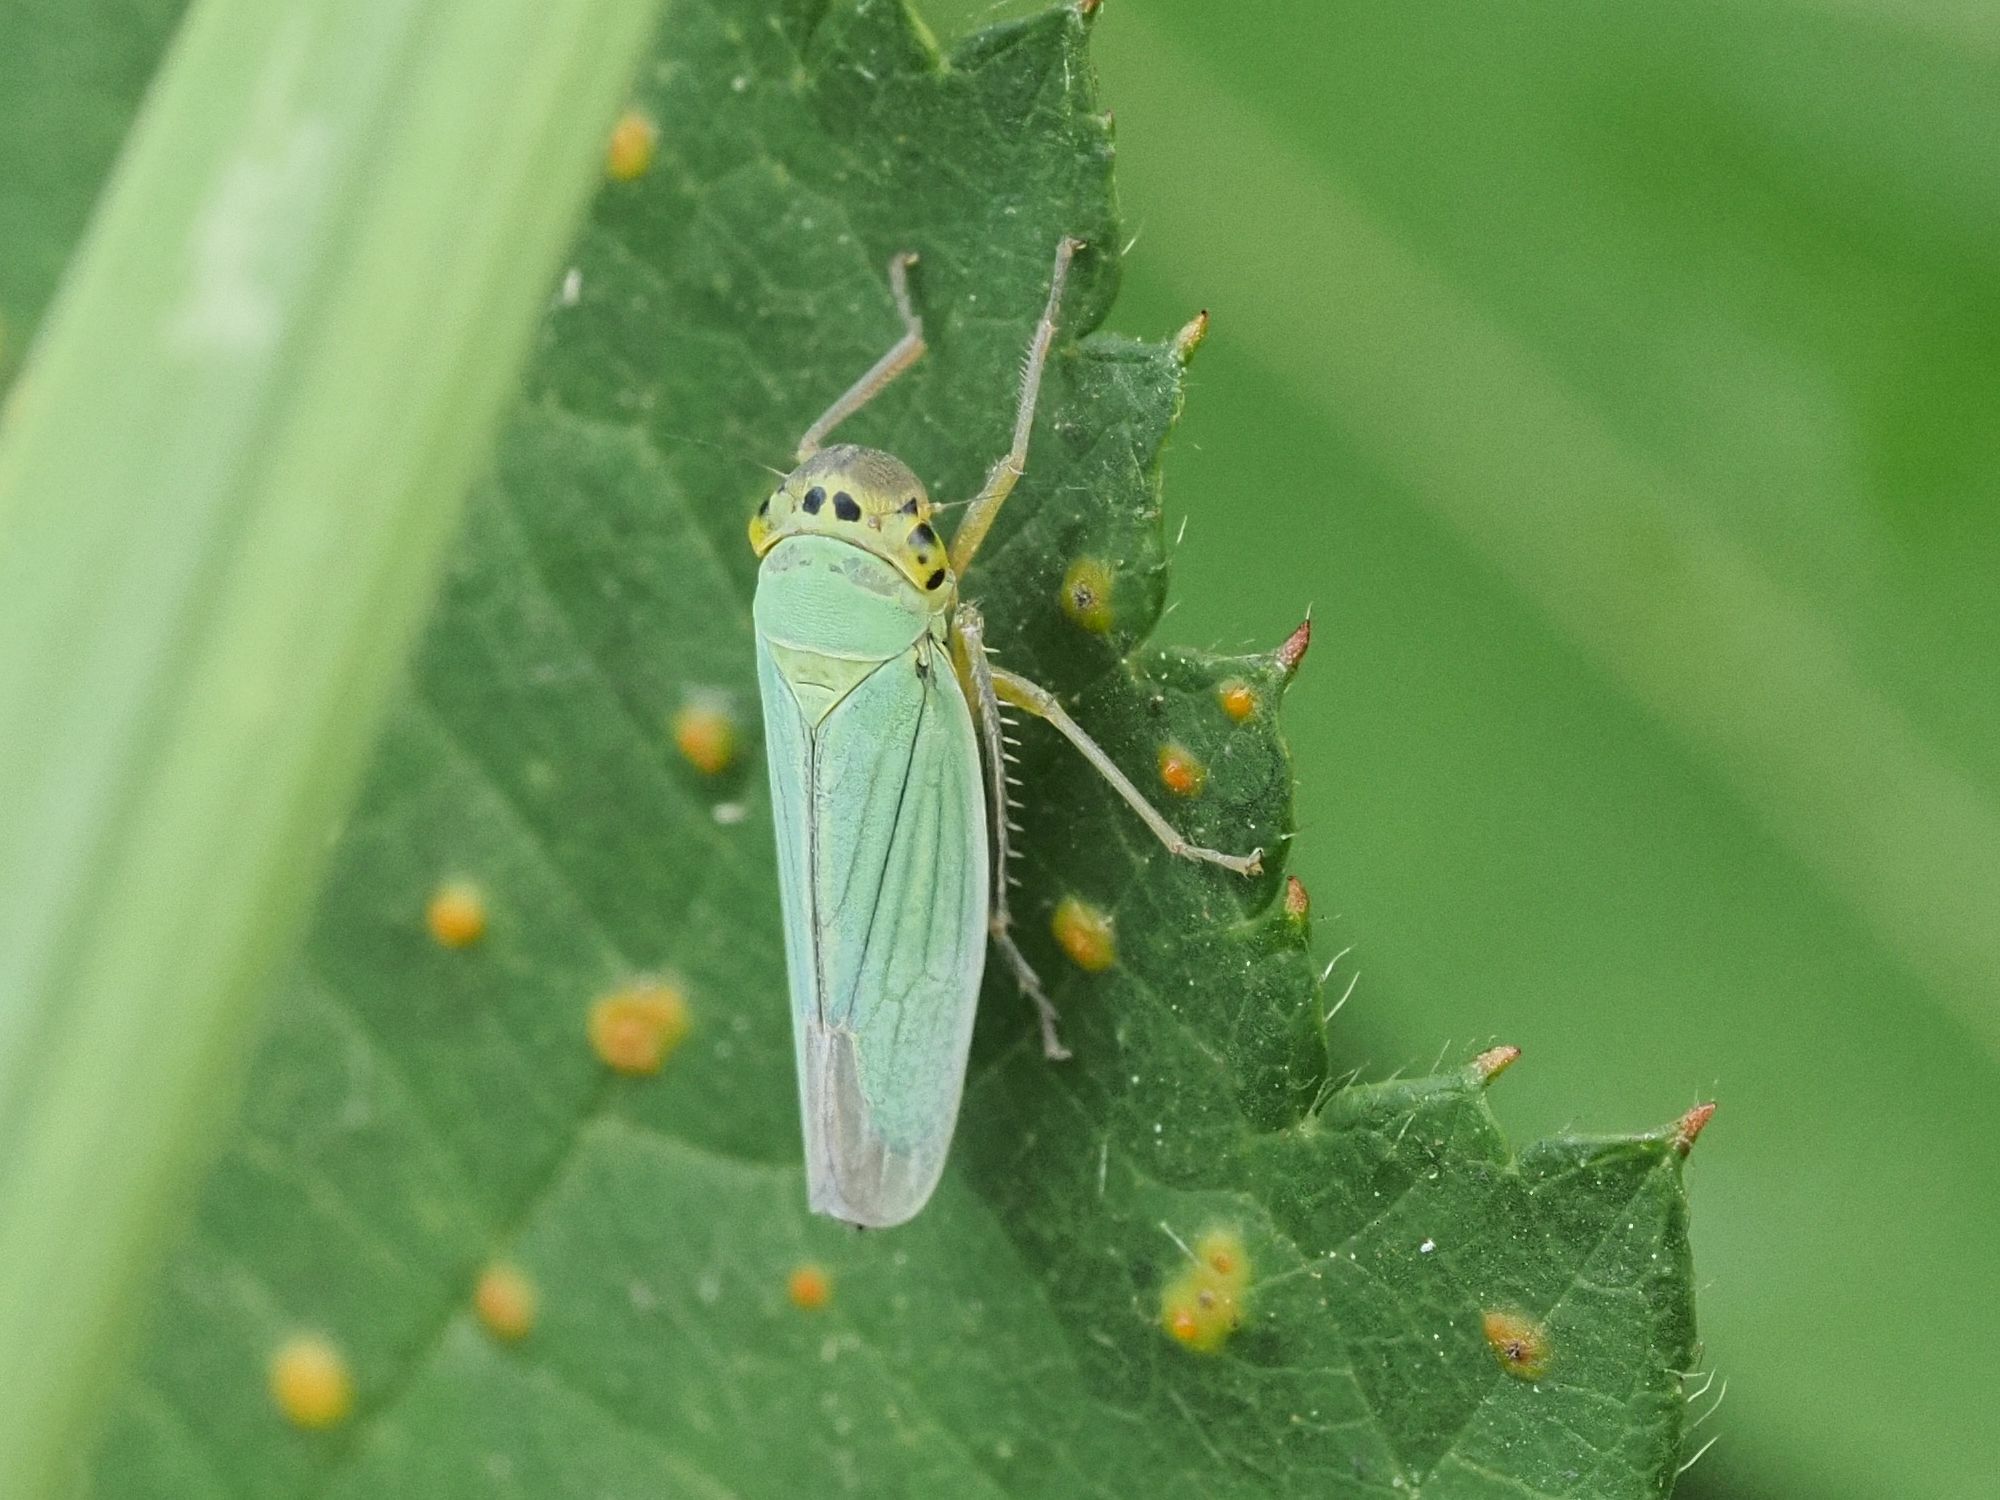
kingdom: Animalia
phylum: Arthropoda
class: Insecta
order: Hemiptera
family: Cicadellidae
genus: Cicadella
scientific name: Cicadella viridis
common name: Leafhopper
